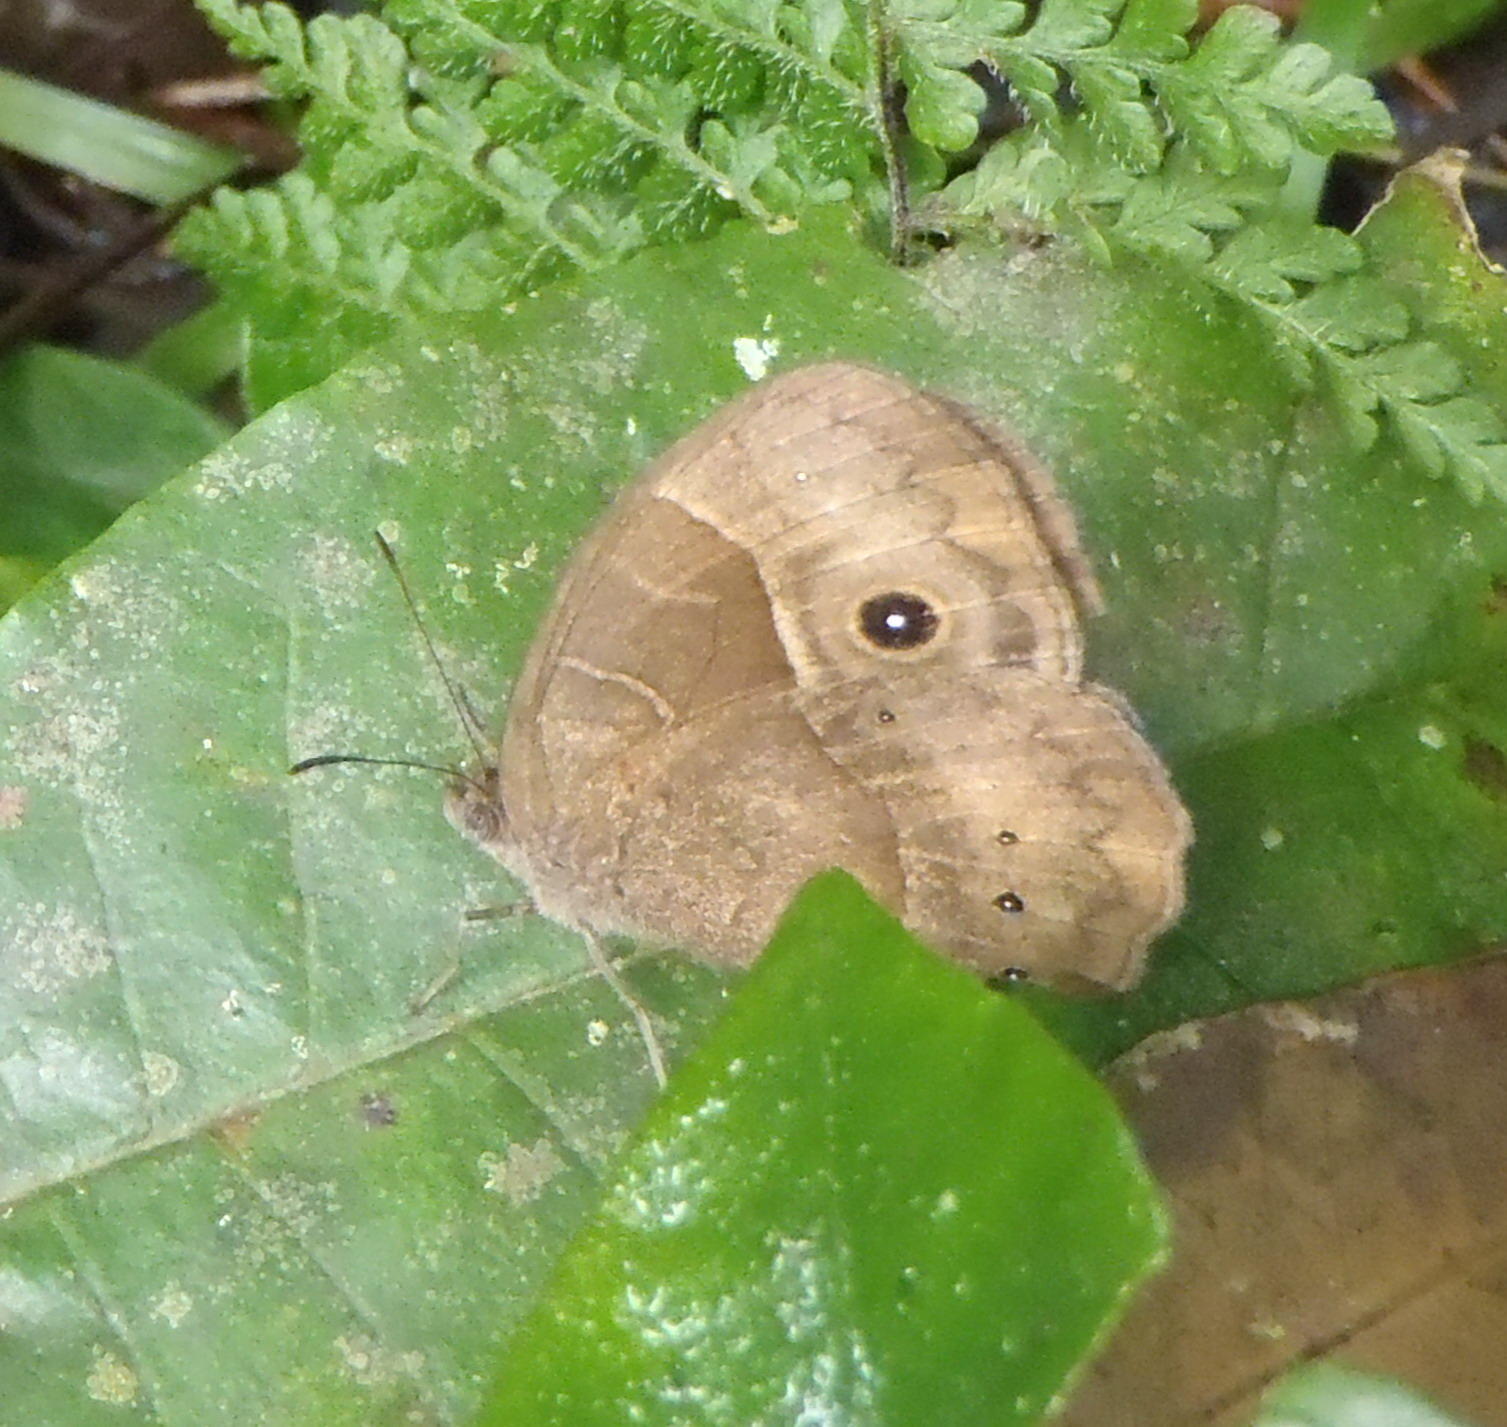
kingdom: Animalia
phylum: Arthropoda
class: Insecta
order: Lepidoptera
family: Nymphalidae
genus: Mycalesis
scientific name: Mycalesis rhacotis
